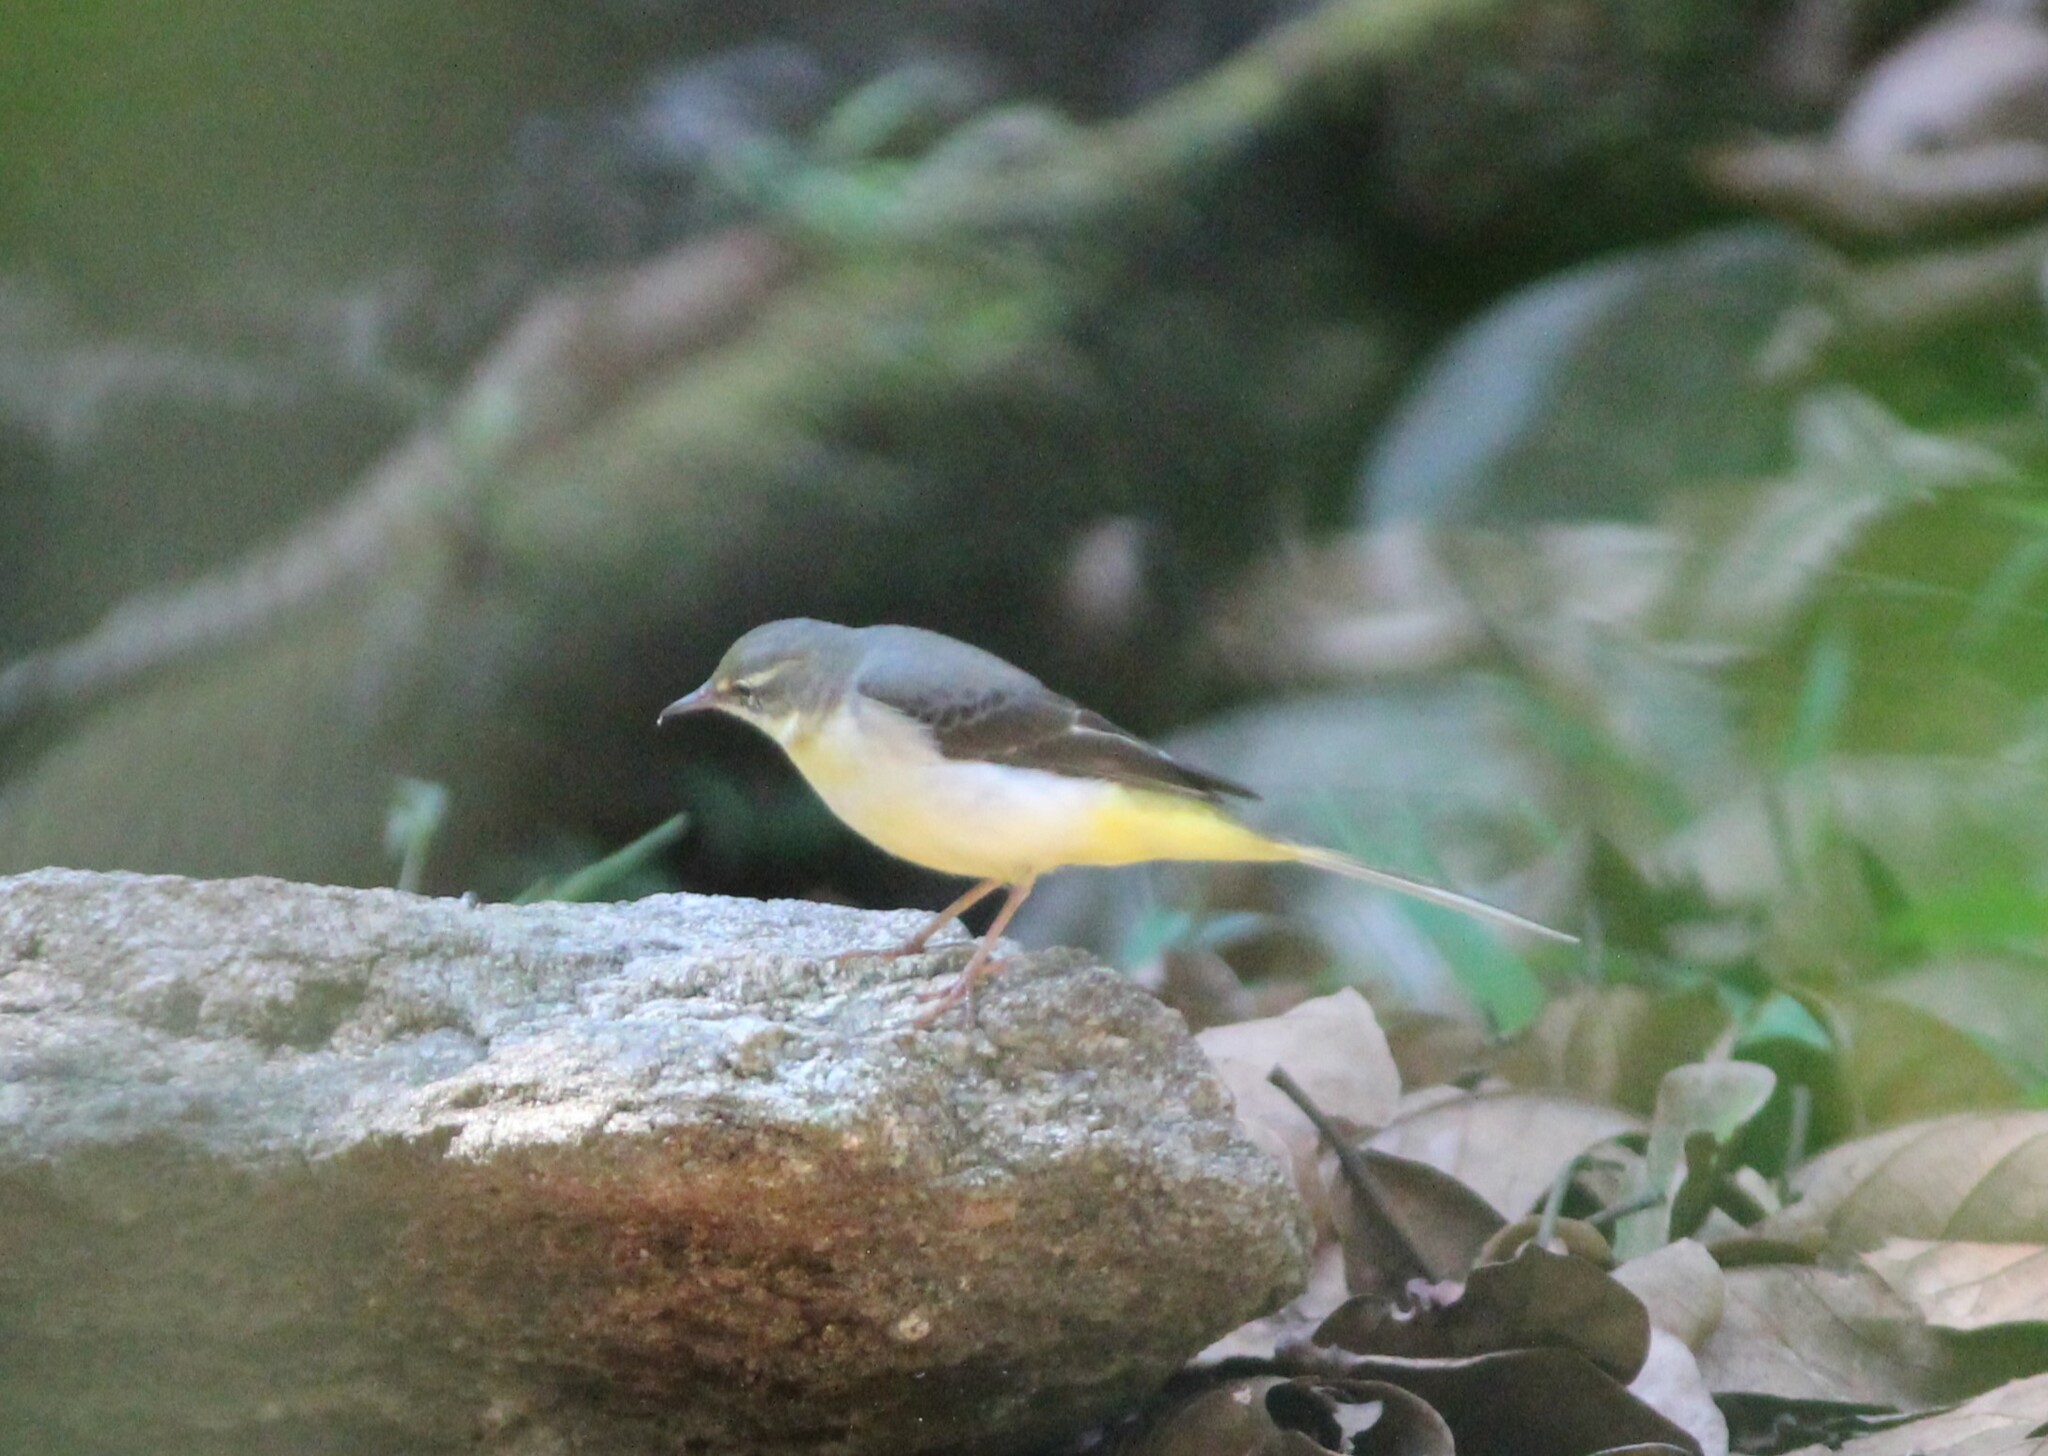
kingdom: Animalia
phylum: Chordata
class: Aves
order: Passeriformes
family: Motacillidae
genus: Motacilla
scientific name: Motacilla cinerea
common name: Grey wagtail
